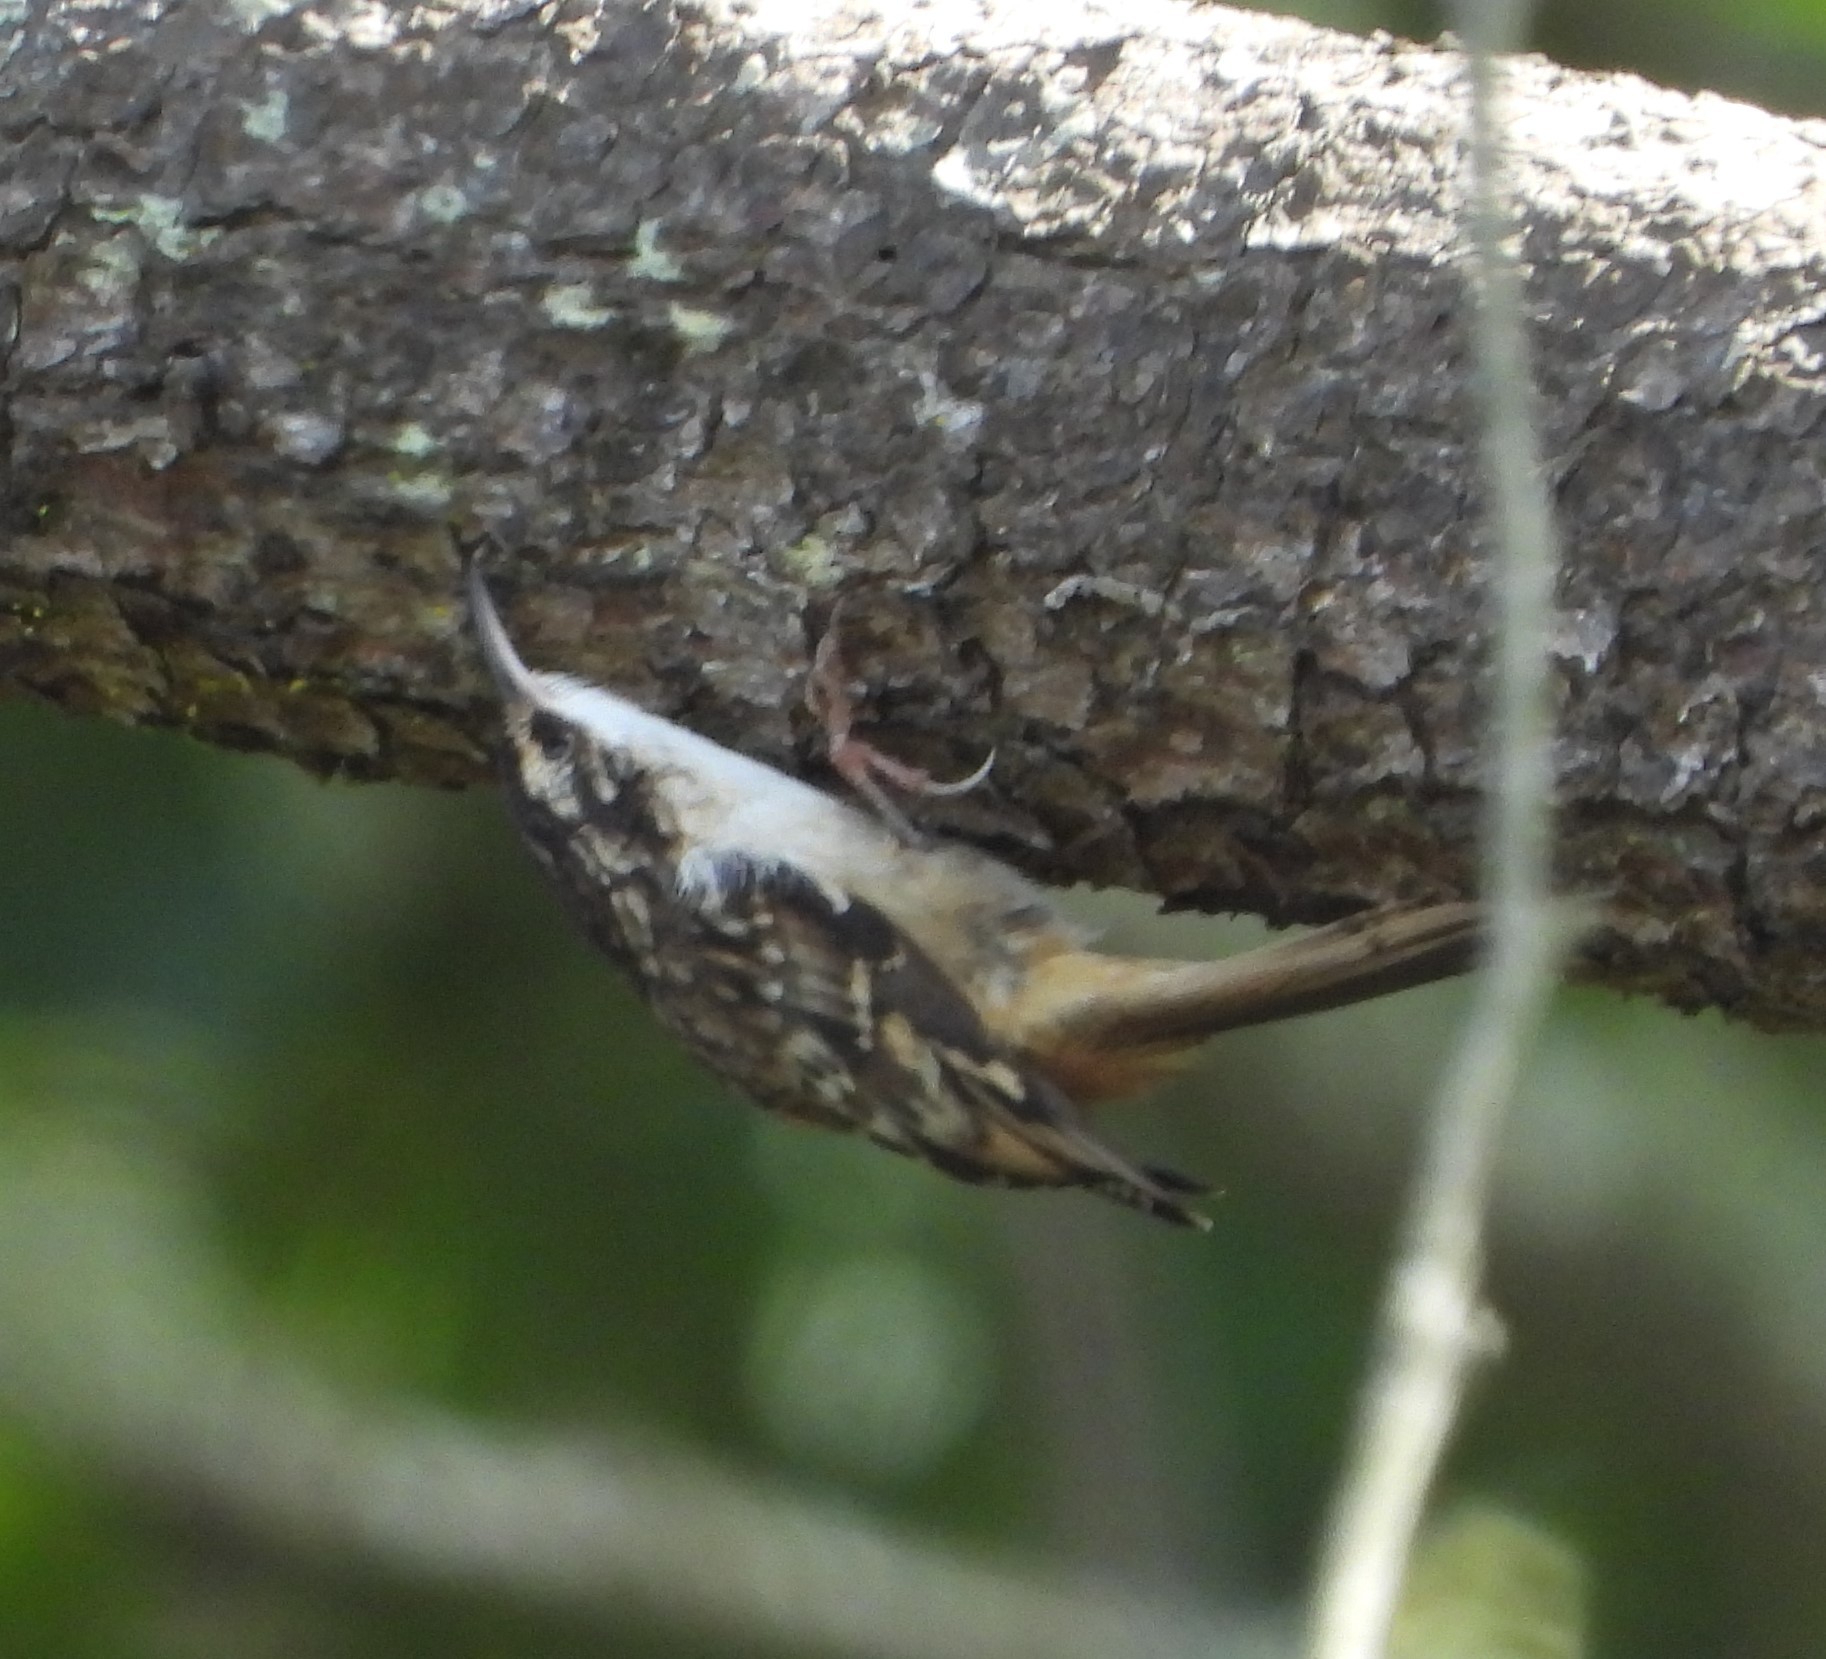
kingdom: Animalia
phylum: Chordata
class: Aves
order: Passeriformes
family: Certhiidae
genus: Certhia
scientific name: Certhia americana
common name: Brown creeper
